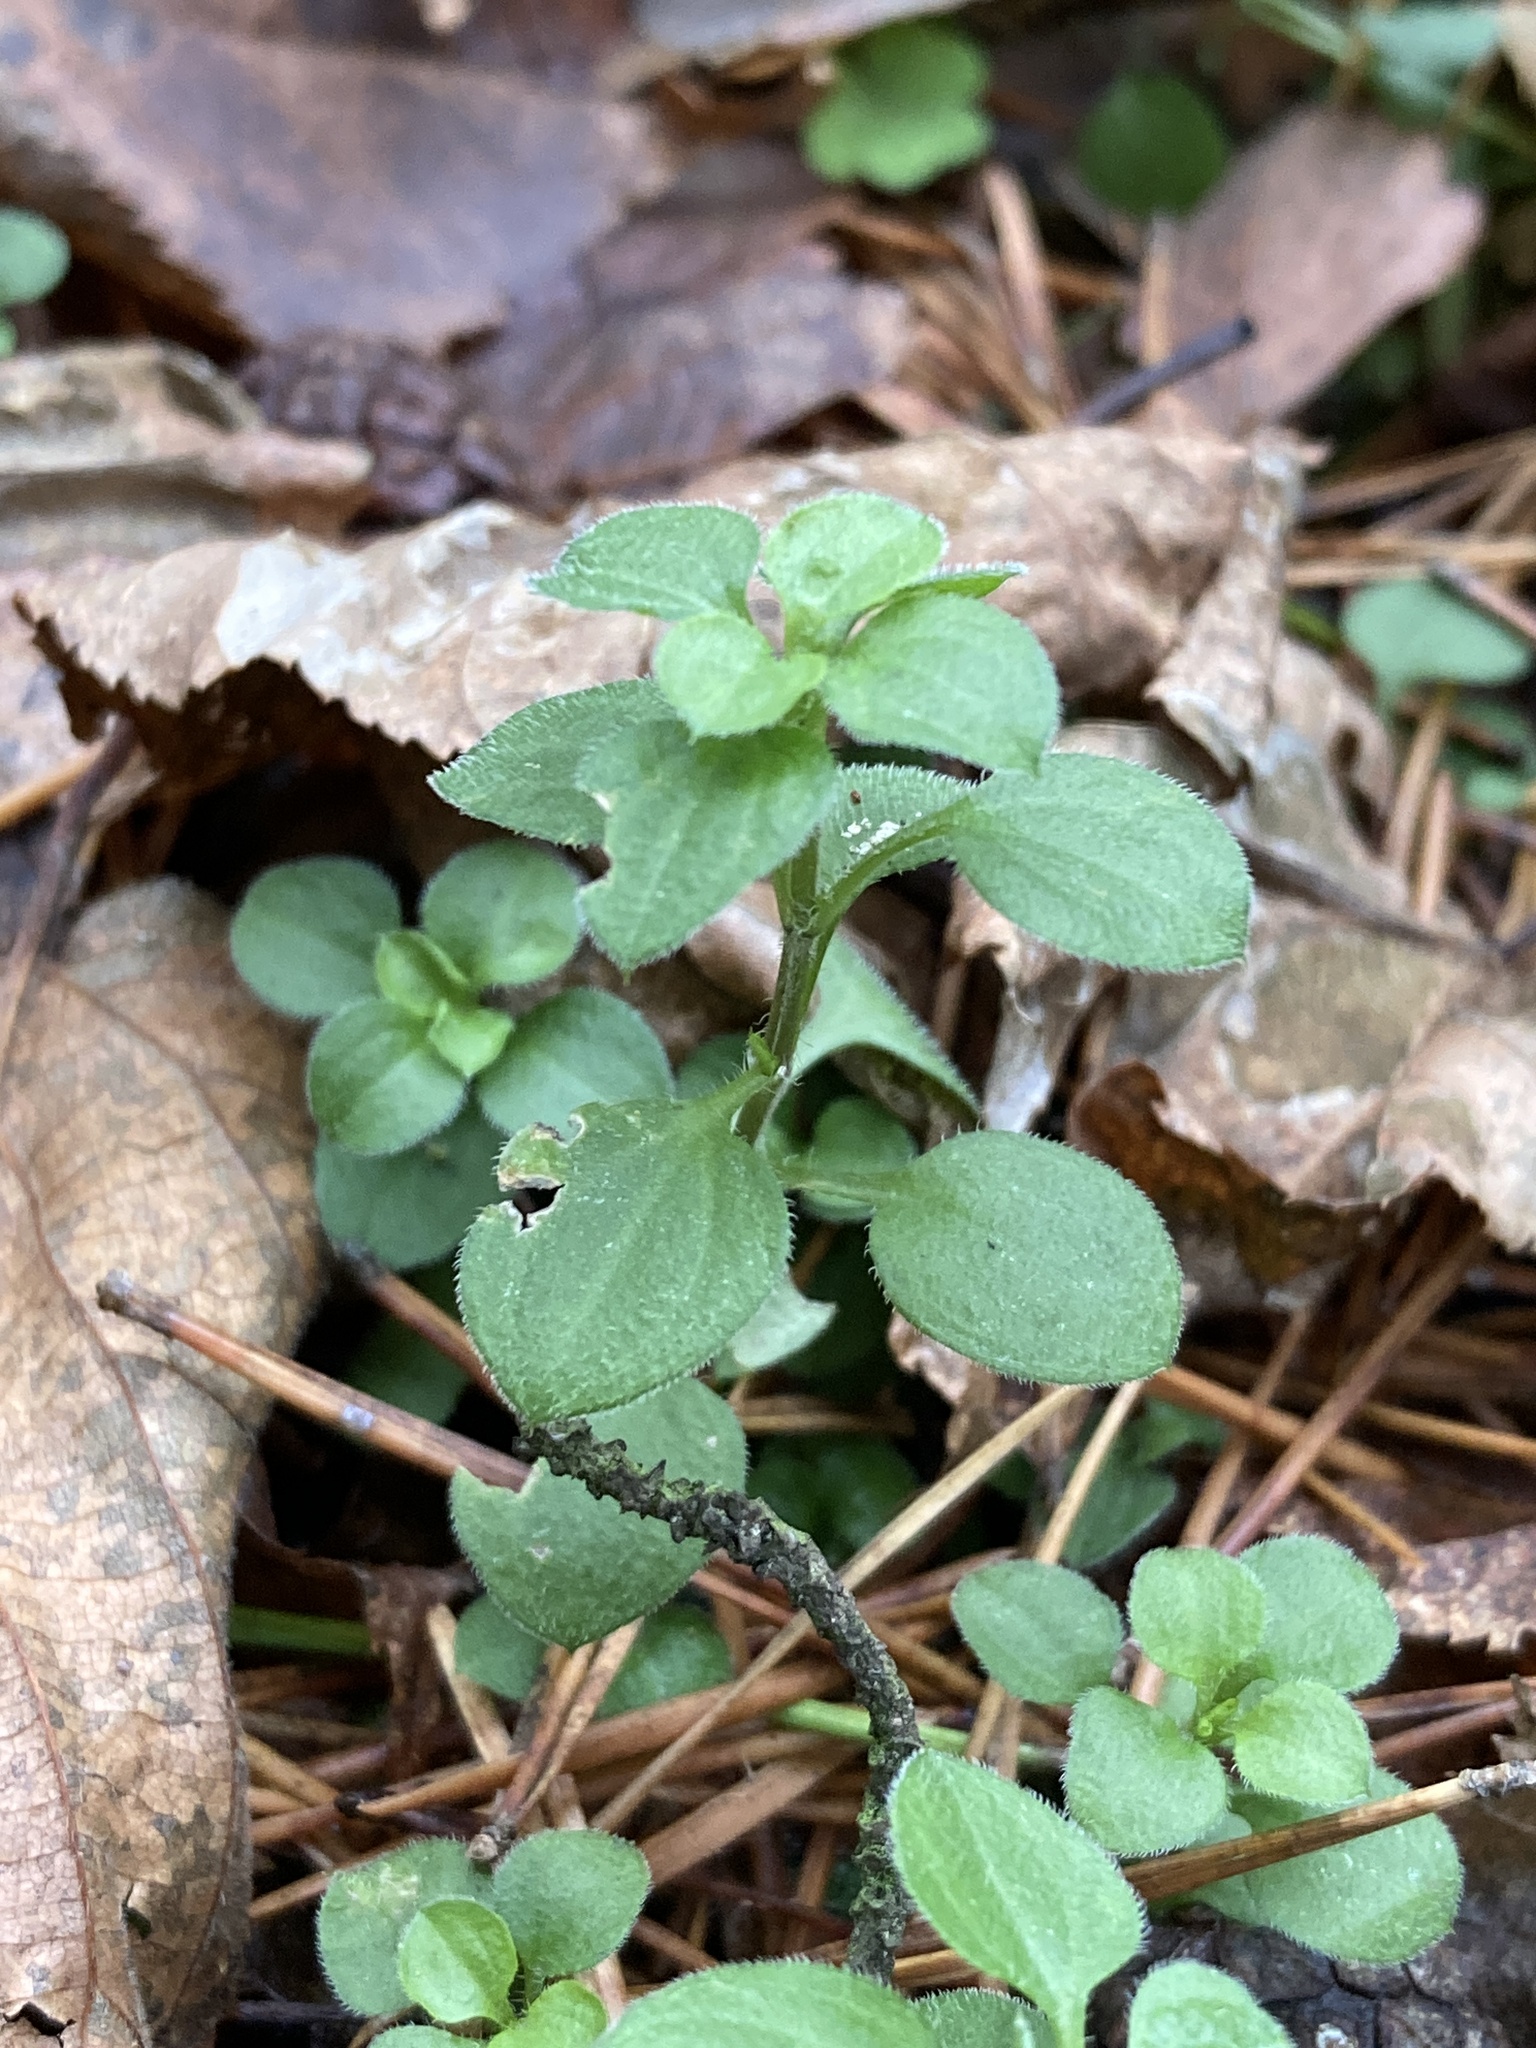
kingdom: Plantae
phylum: Tracheophyta
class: Magnoliopsida
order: Caryophyllales
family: Caryophyllaceae
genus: Moehringia
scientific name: Moehringia trinervia
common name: Three-nerved sandwort
